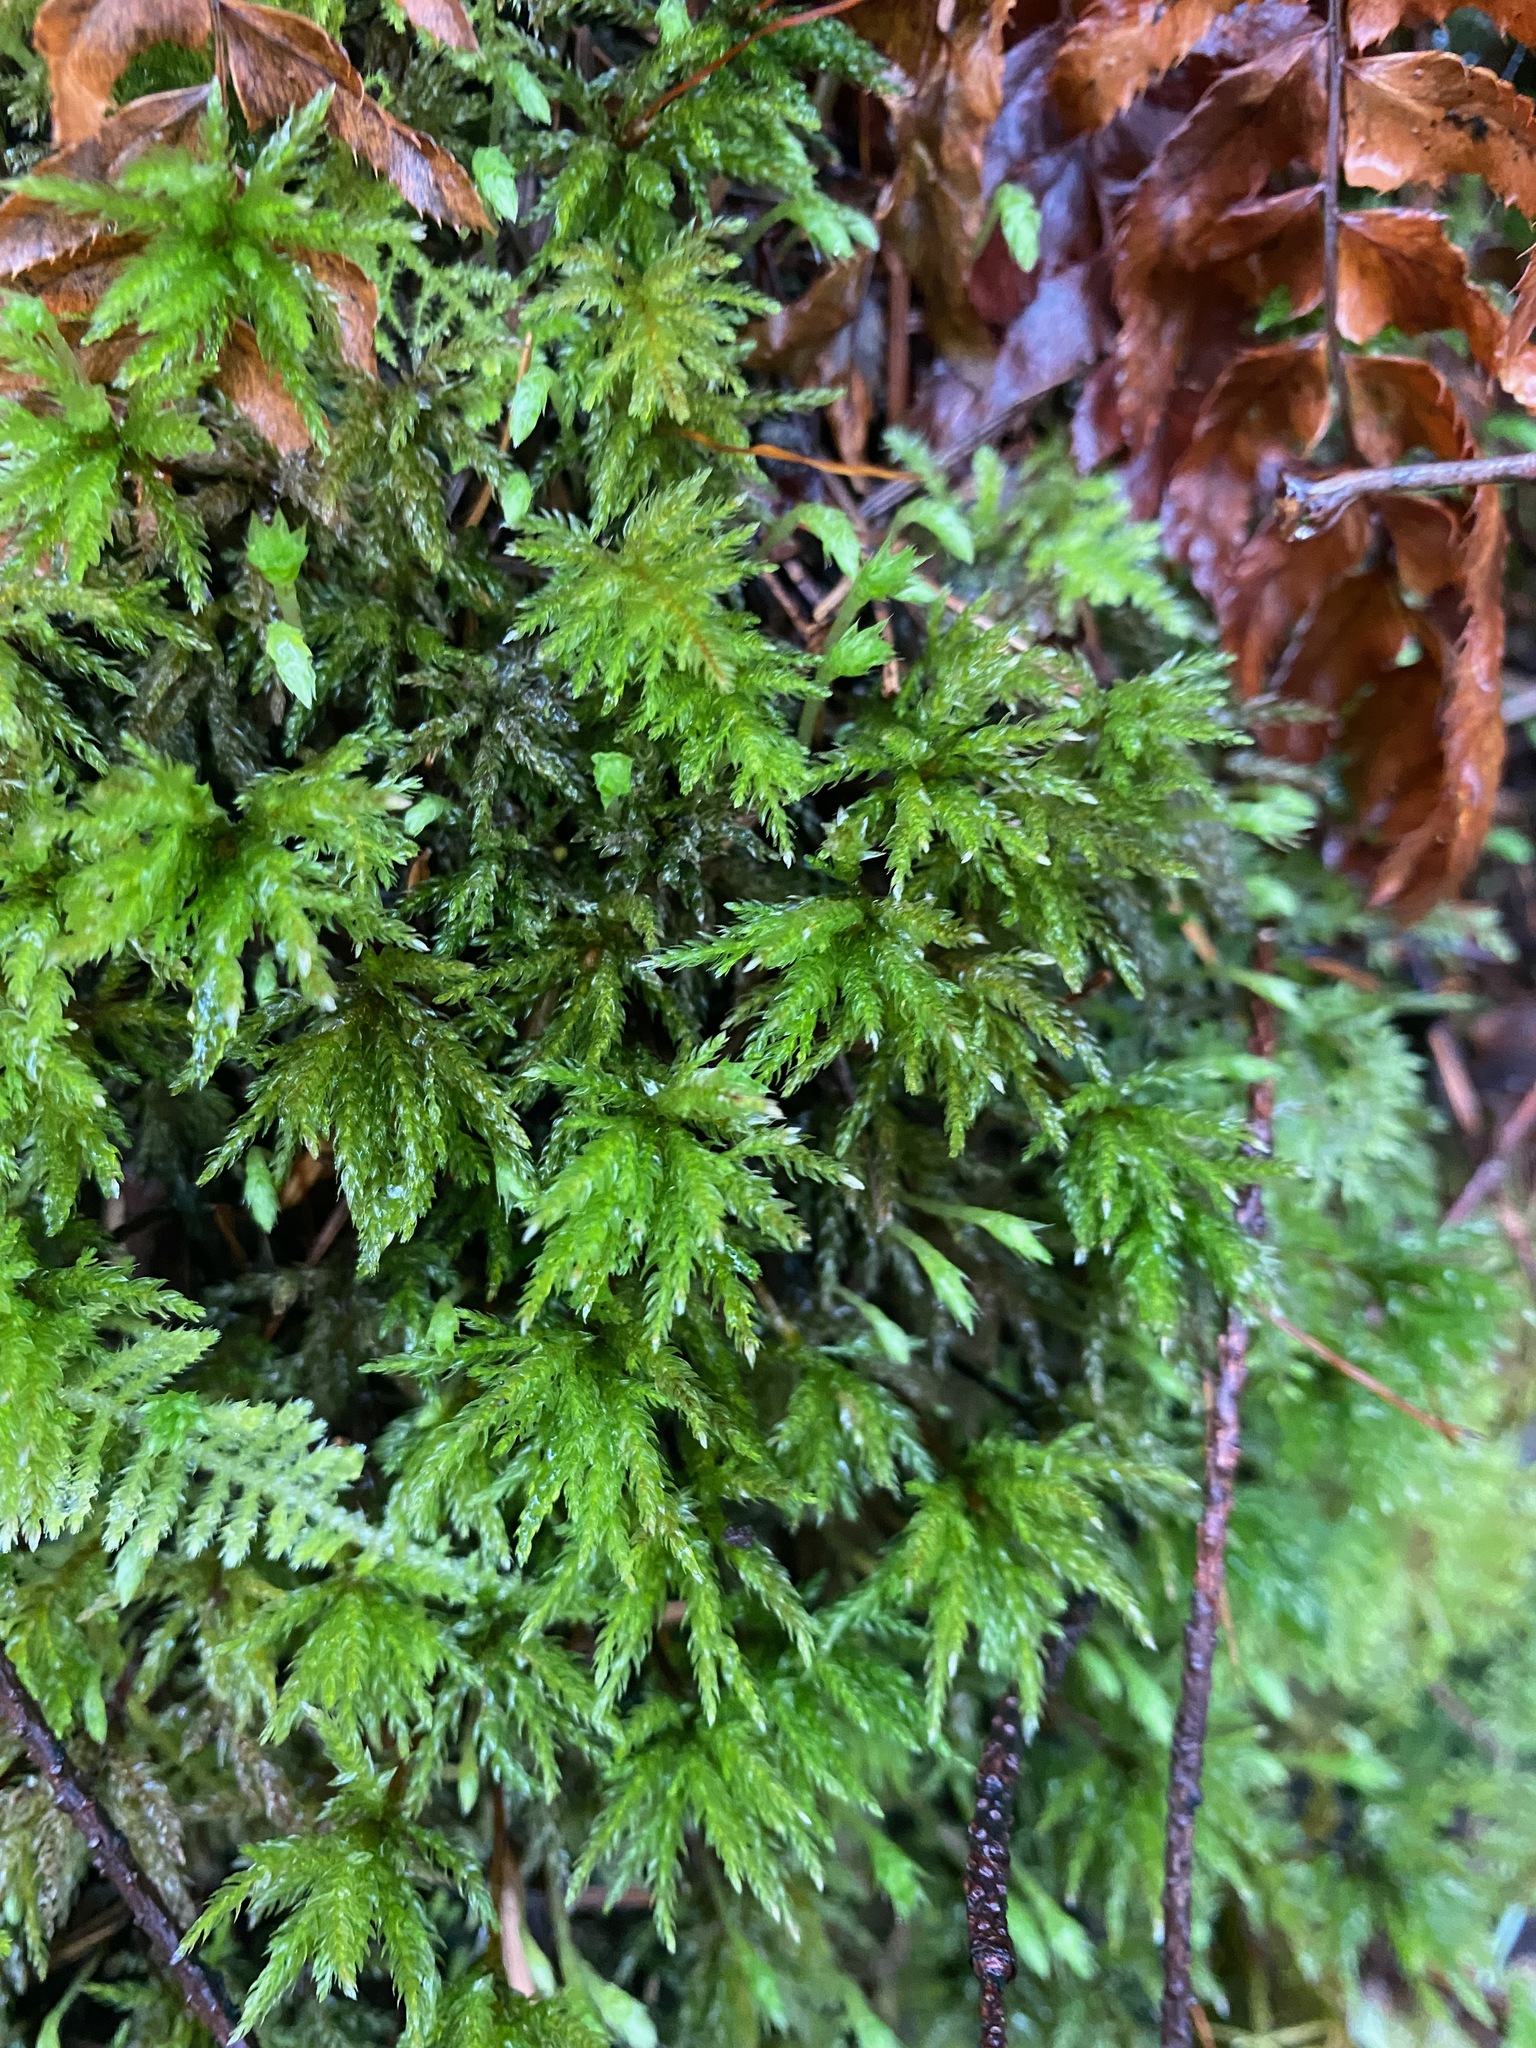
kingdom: Plantae
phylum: Bryophyta
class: Bryopsida
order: Bryales
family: Mniaceae
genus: Leucolepis
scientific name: Leucolepis acanthoneura
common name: Leucolepis umbrella moss
